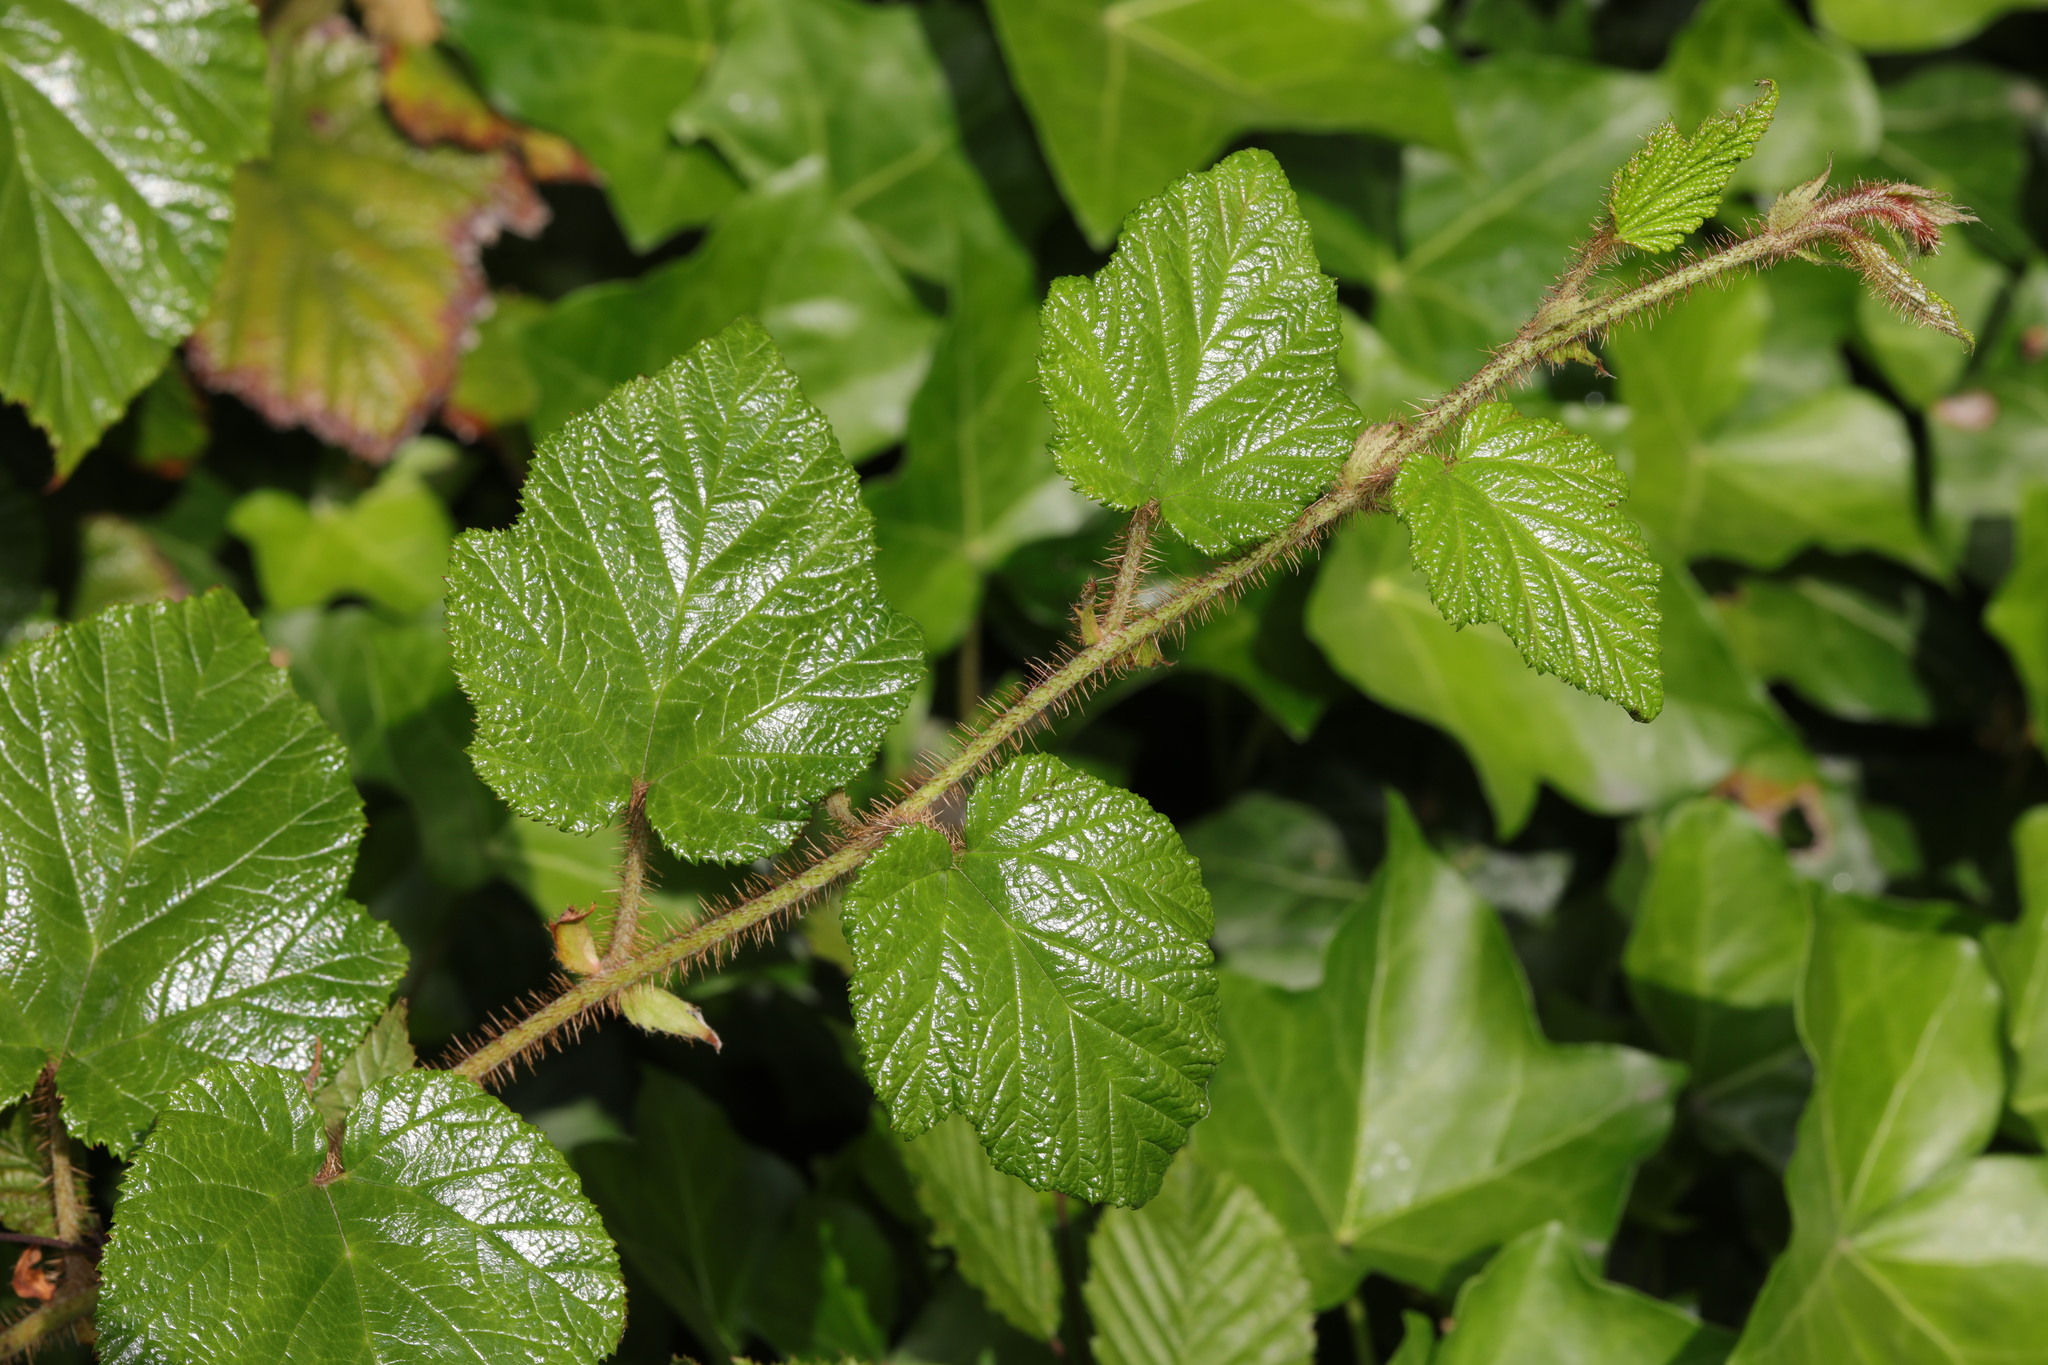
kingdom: Plantae
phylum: Tracheophyta
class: Magnoliopsida
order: Rosales
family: Rosaceae
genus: Rubus
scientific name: Rubus tricolor
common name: Chinese bramble
